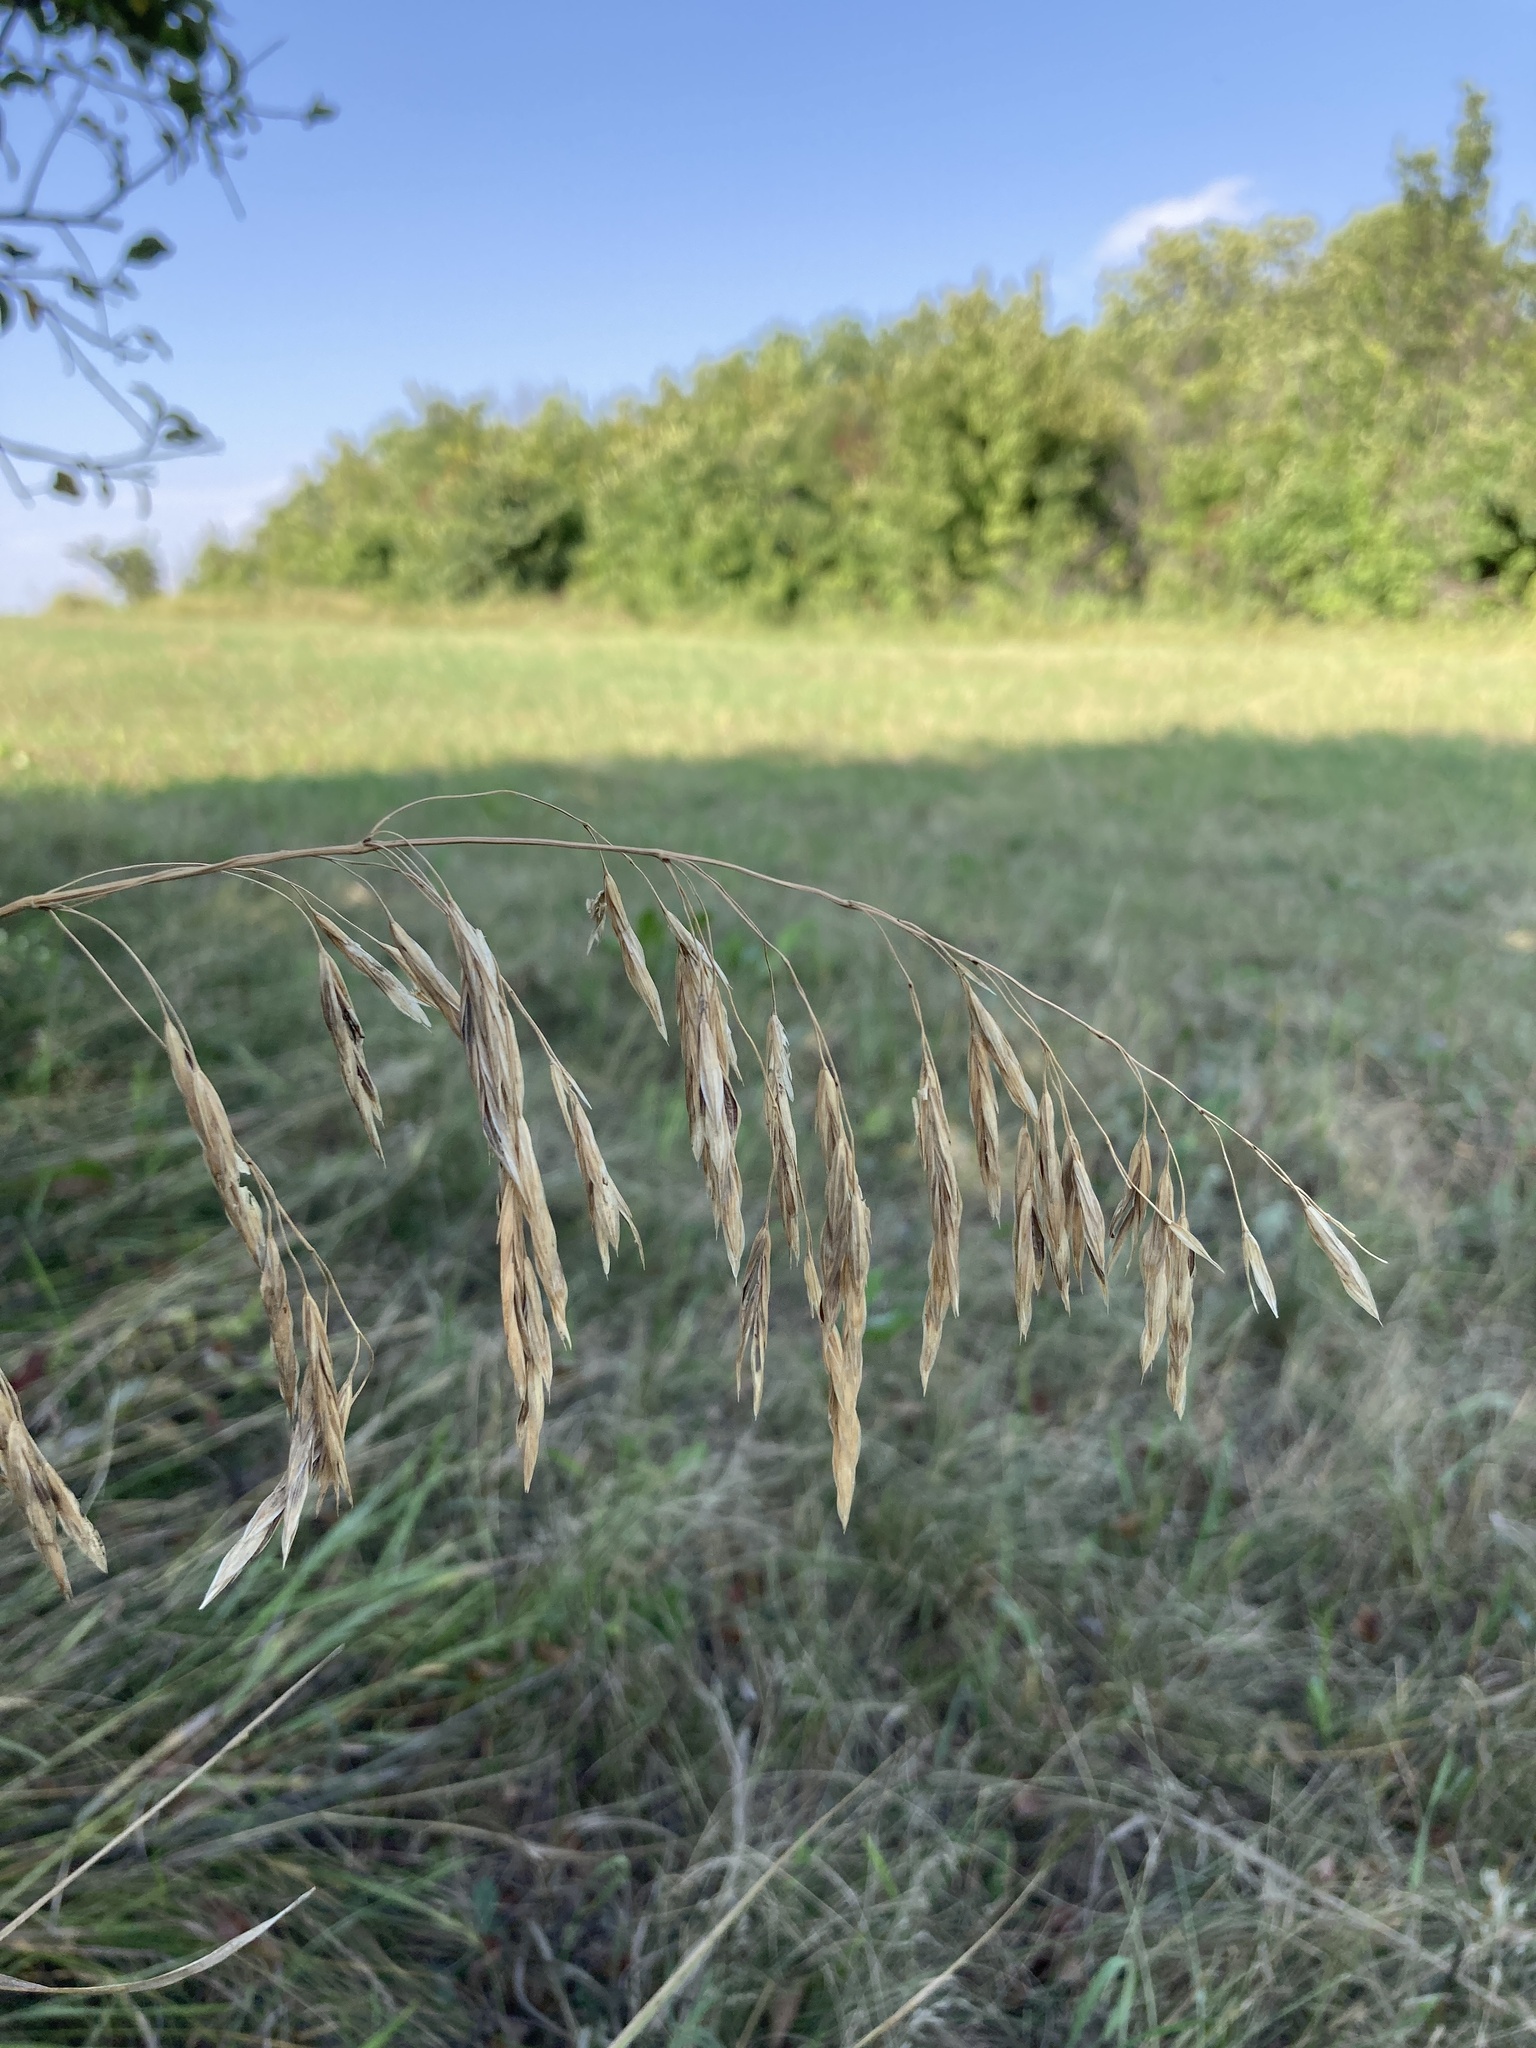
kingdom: Plantae
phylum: Tracheophyta
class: Liliopsida
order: Poales
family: Poaceae
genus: Bromus
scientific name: Bromus inermis
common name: Smooth brome
